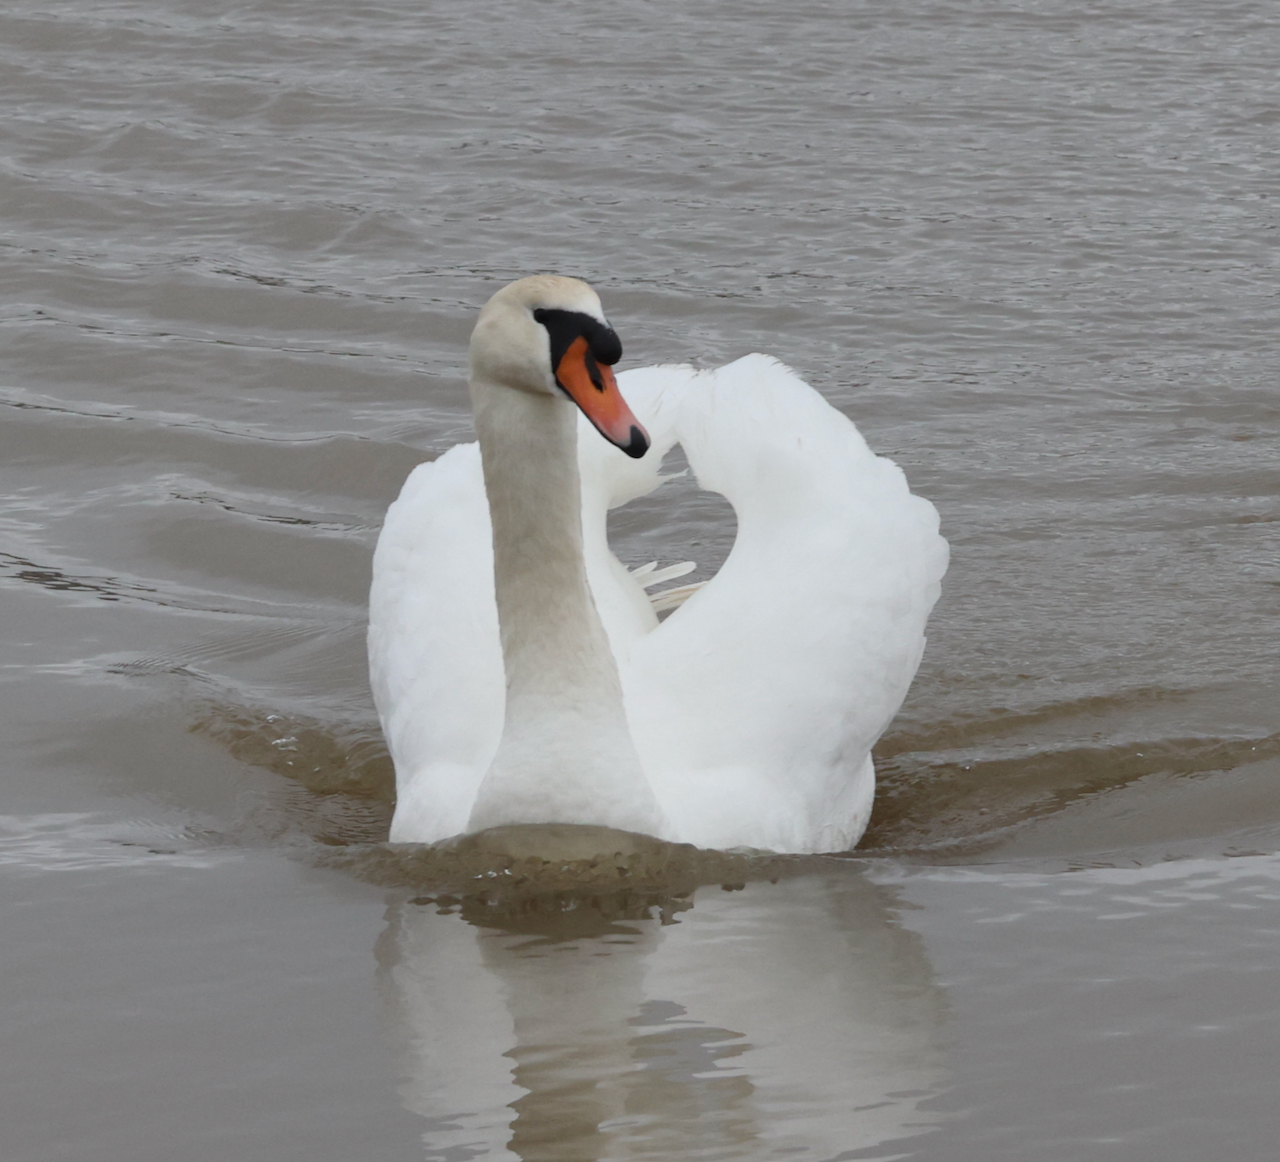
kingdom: Animalia
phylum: Chordata
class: Aves
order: Anseriformes
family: Anatidae
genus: Cygnus
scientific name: Cygnus olor
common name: Mute swan
